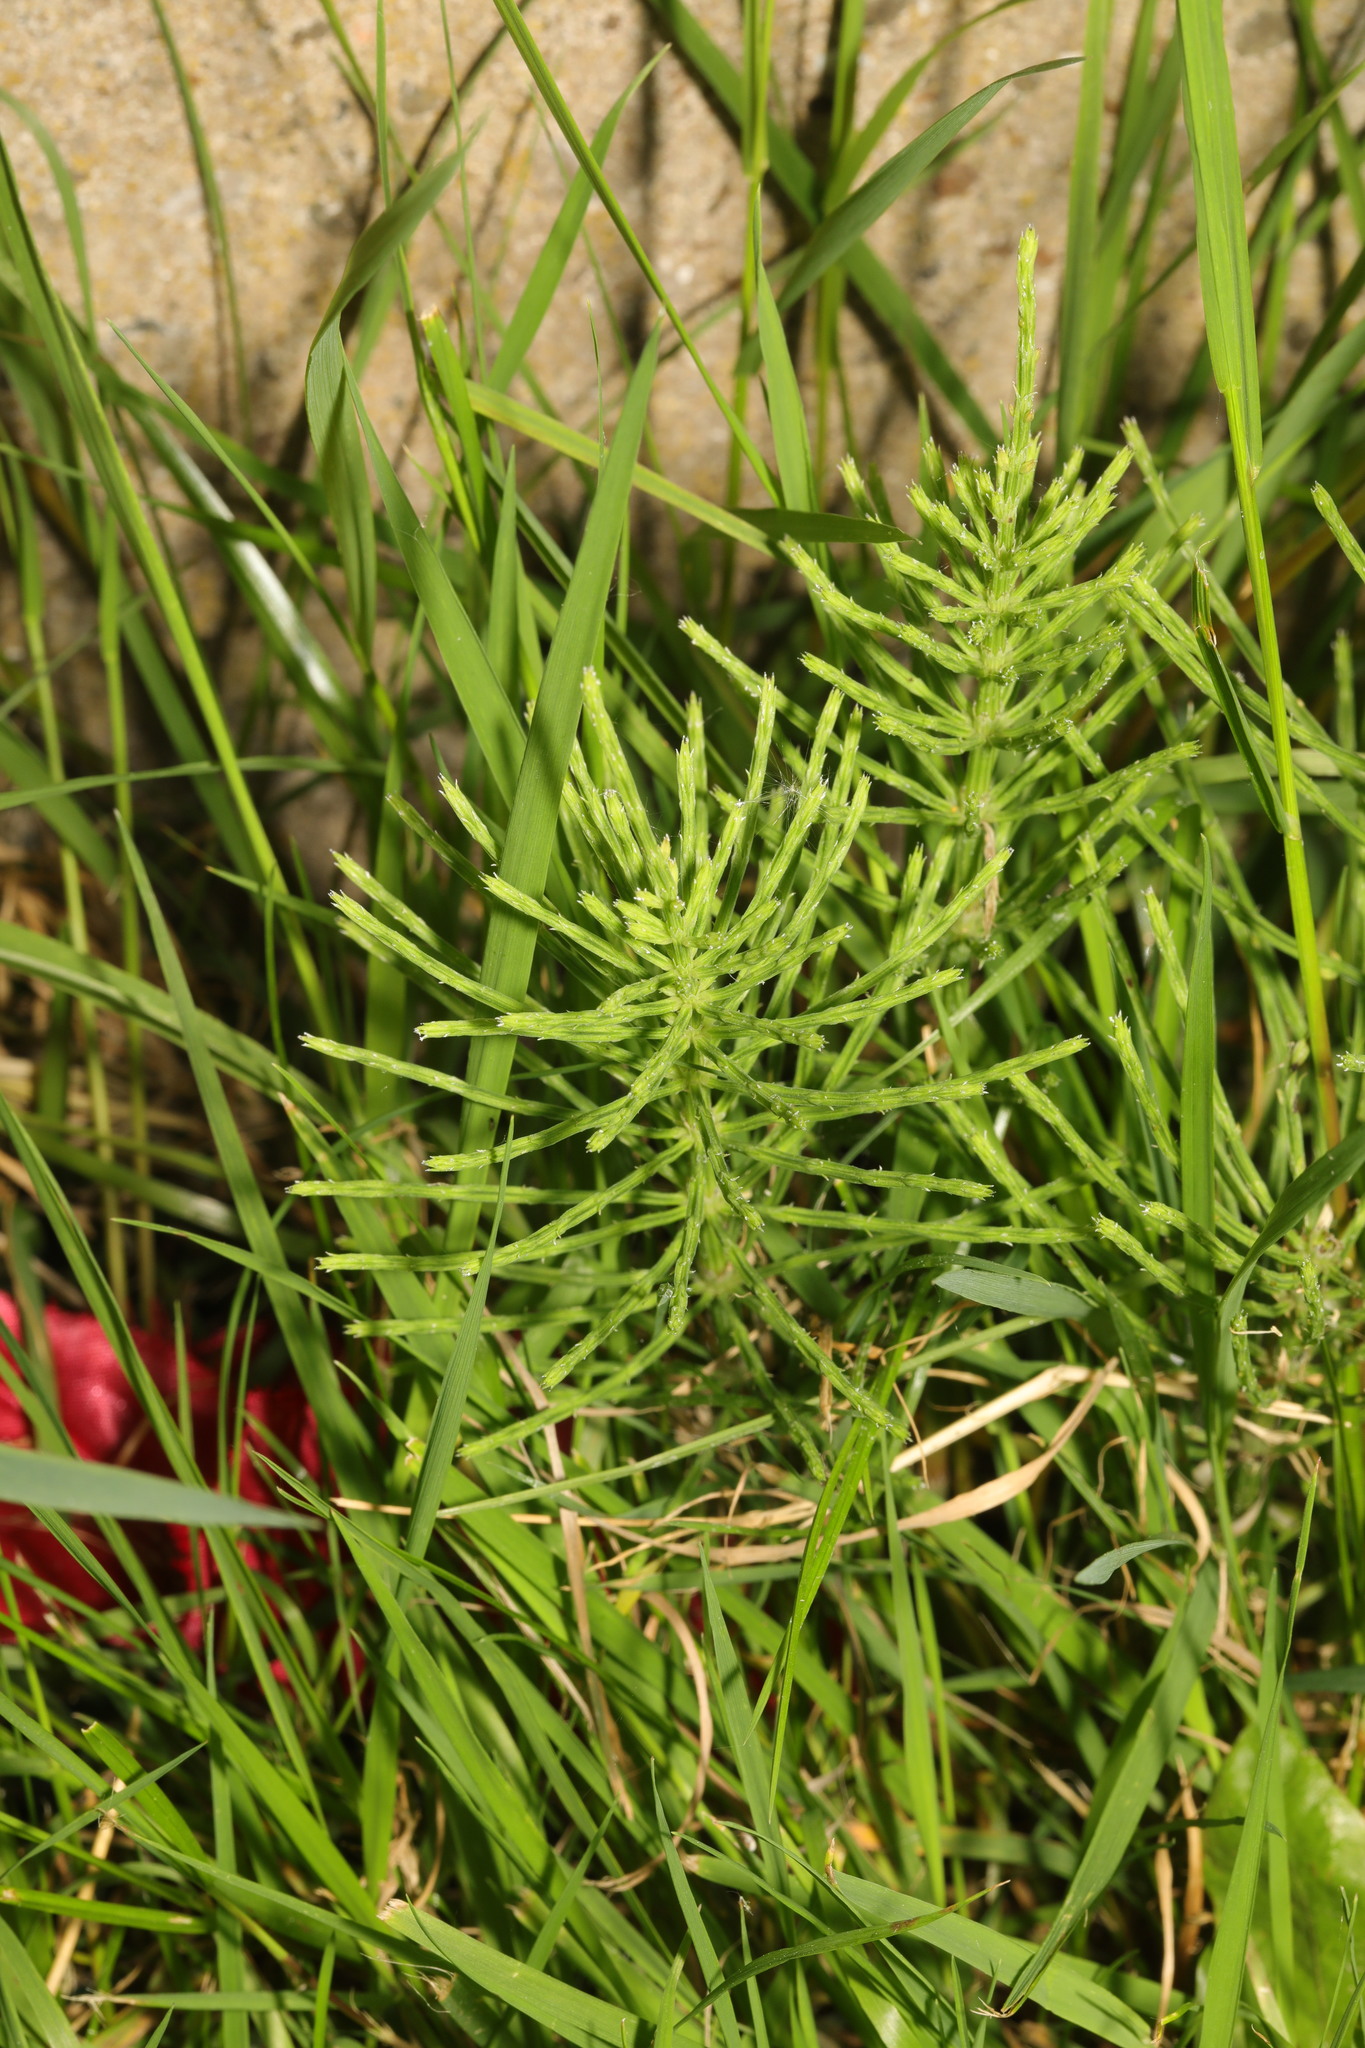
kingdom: Plantae
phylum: Tracheophyta
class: Polypodiopsida
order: Equisetales
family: Equisetaceae
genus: Equisetum
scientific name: Equisetum arvense
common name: Field horsetail
